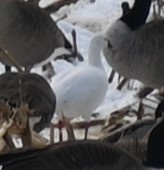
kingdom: Animalia
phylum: Chordata
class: Aves
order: Anseriformes
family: Anatidae
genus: Anser
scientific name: Anser rossii
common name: Ross's goose
